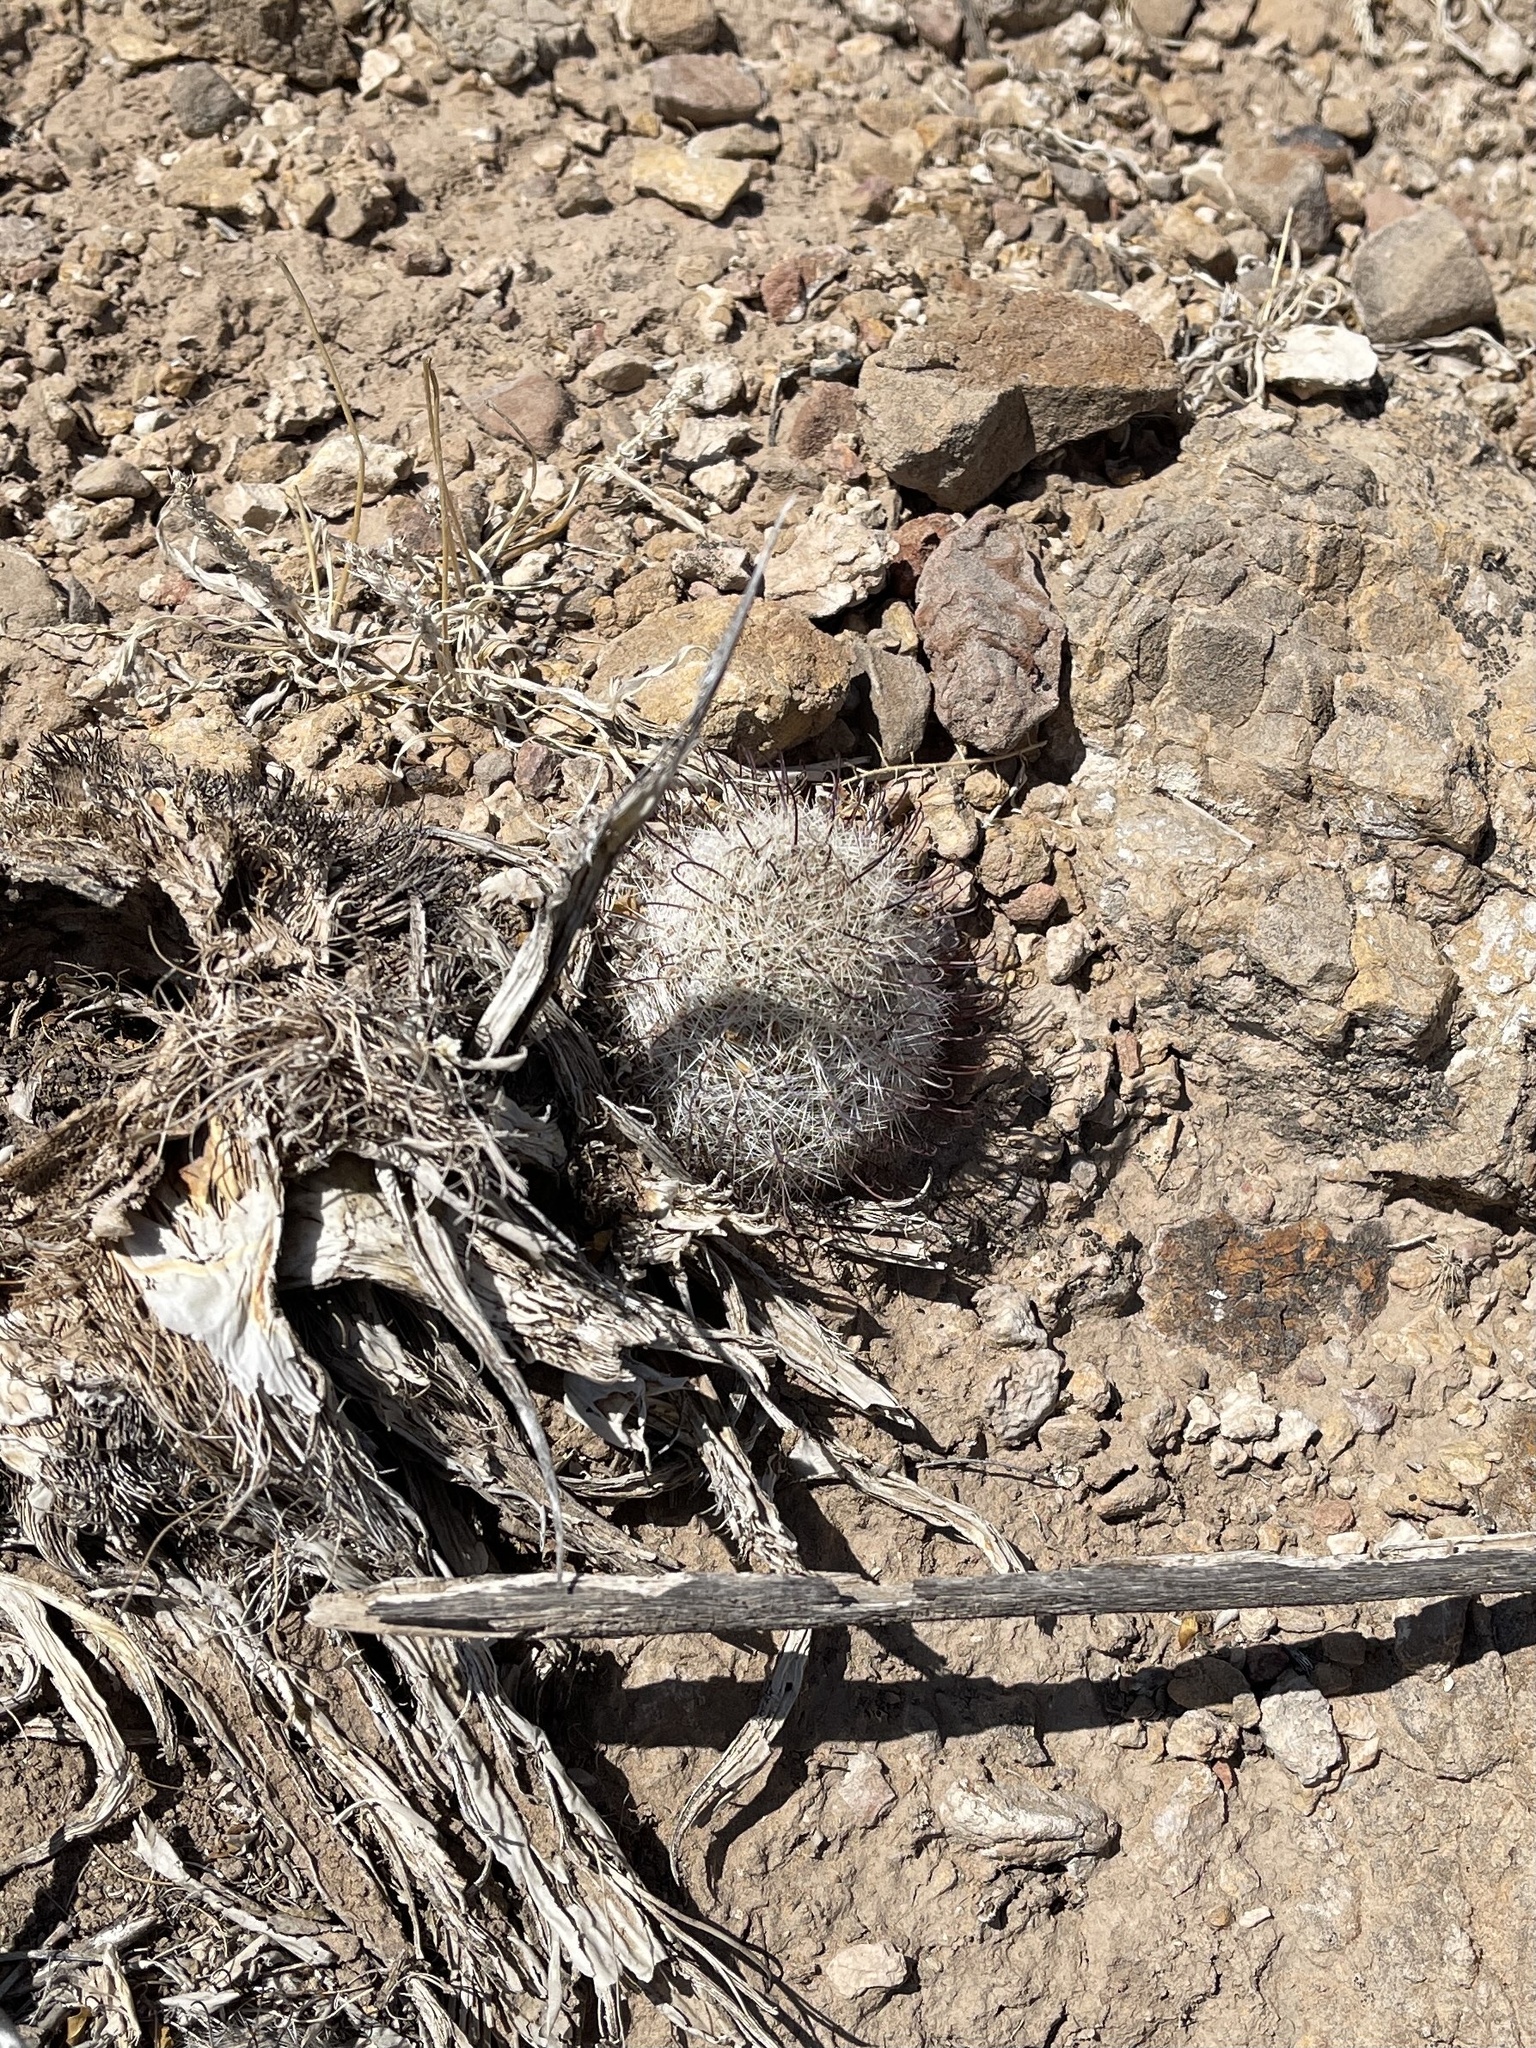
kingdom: Plantae
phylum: Tracheophyta
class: Magnoliopsida
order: Caryophyllales
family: Cactaceae
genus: Cochemiea
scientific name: Cochemiea grahamii
